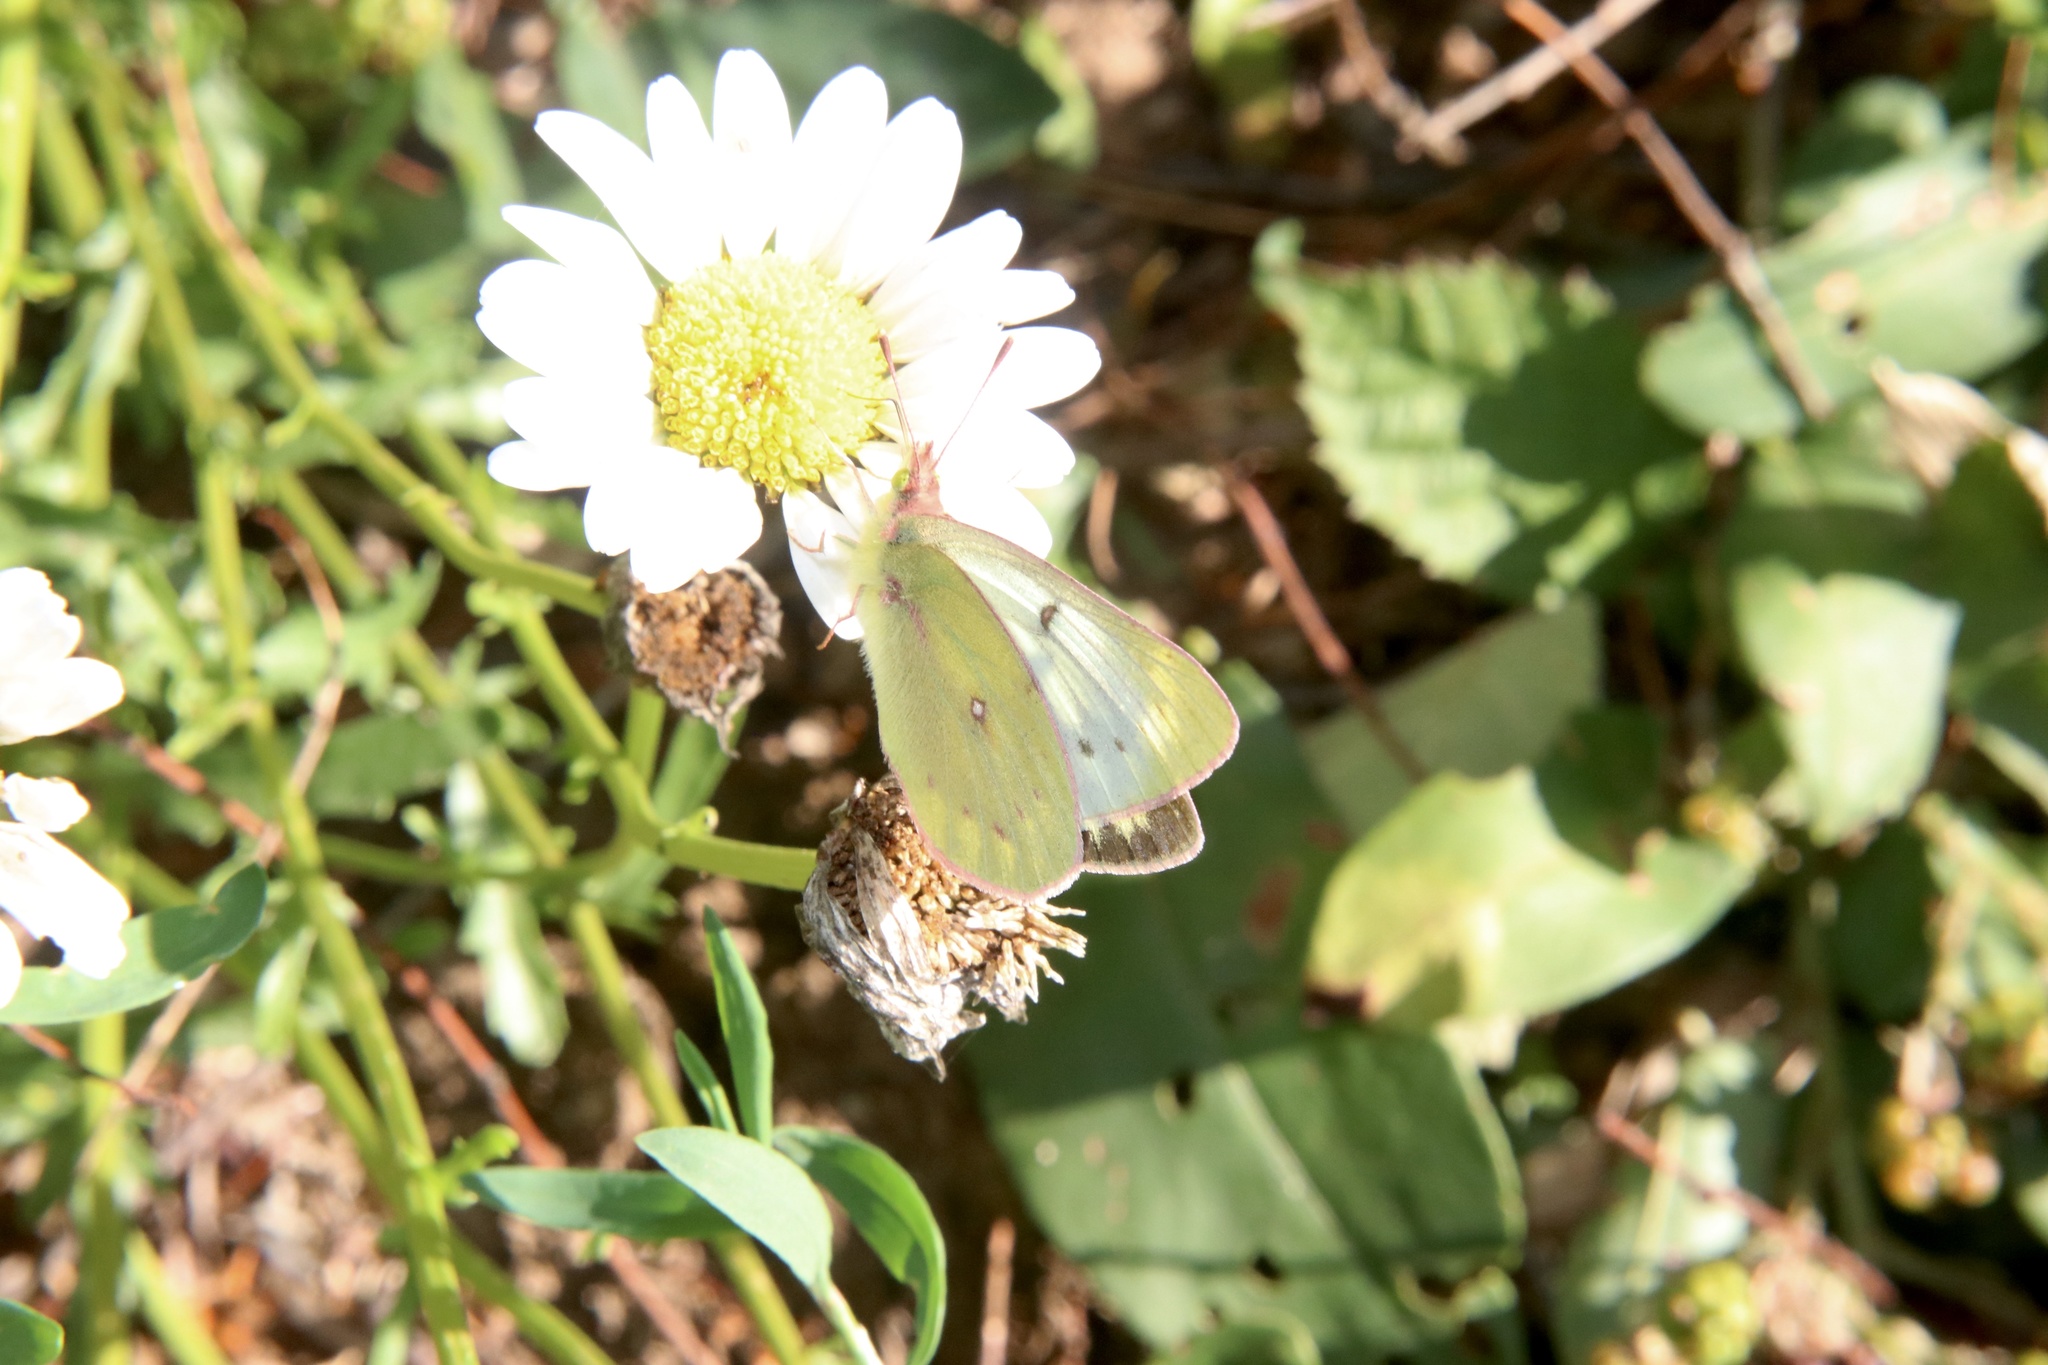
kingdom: Animalia
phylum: Arthropoda
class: Insecta
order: Lepidoptera
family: Pieridae
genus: Colias
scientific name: Colias vauthierii
